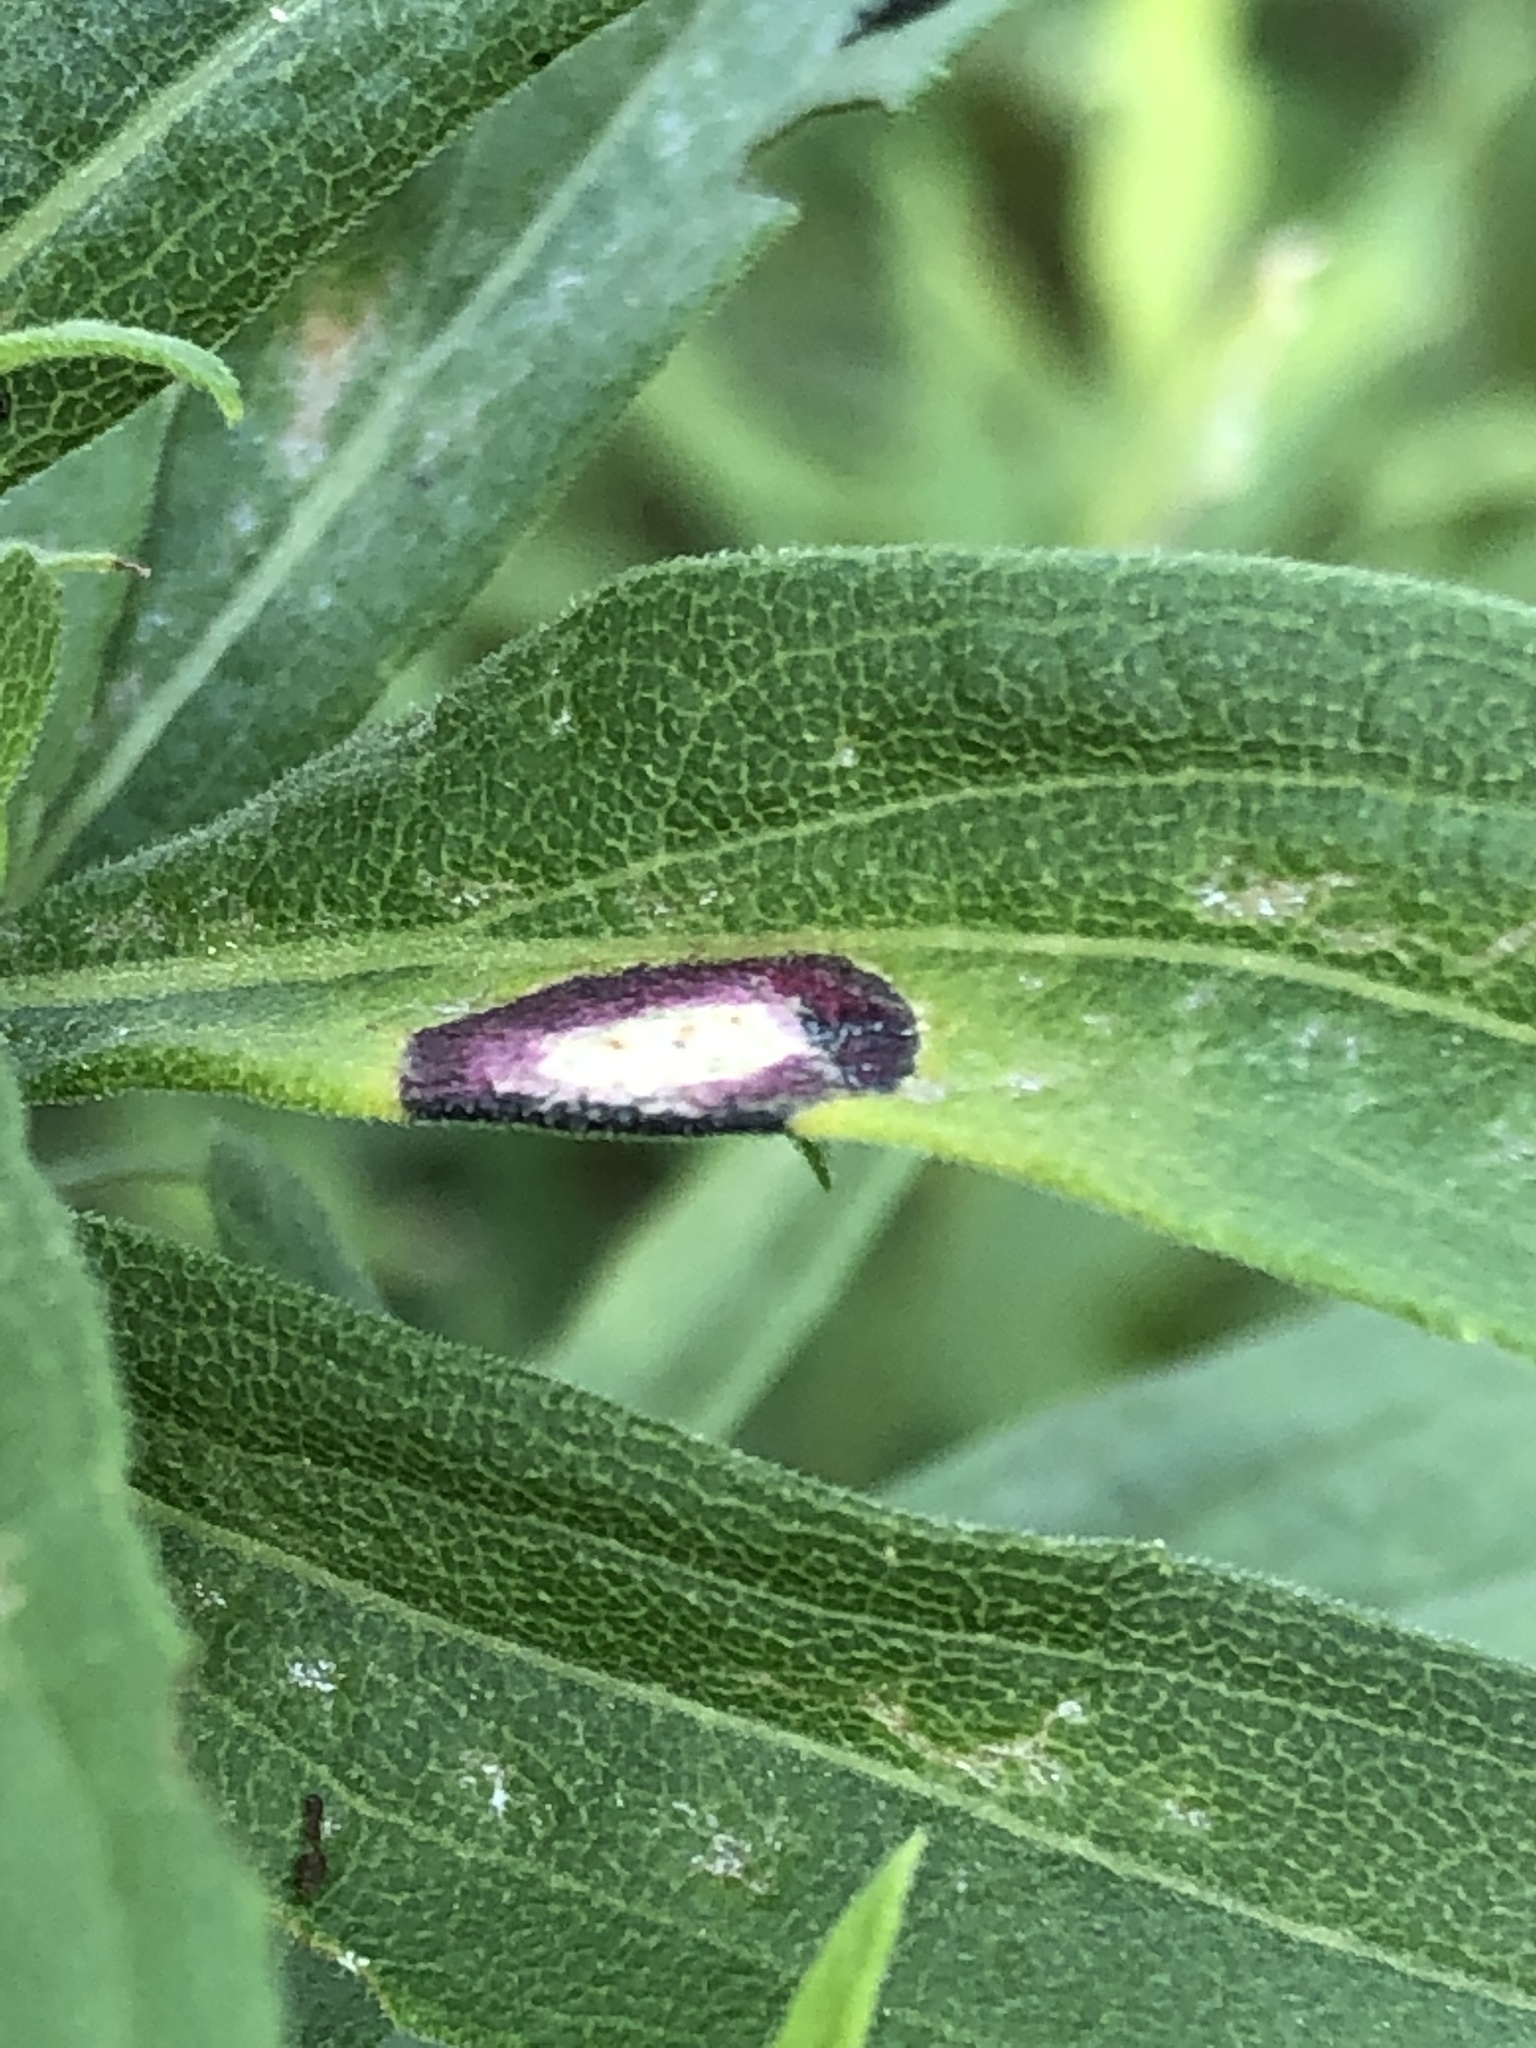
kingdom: Animalia
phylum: Arthropoda
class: Insecta
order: Diptera
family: Cecidomyiidae
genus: Asteromyia
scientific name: Asteromyia carbonifera
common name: Carbonifera goldenrod gall midge
